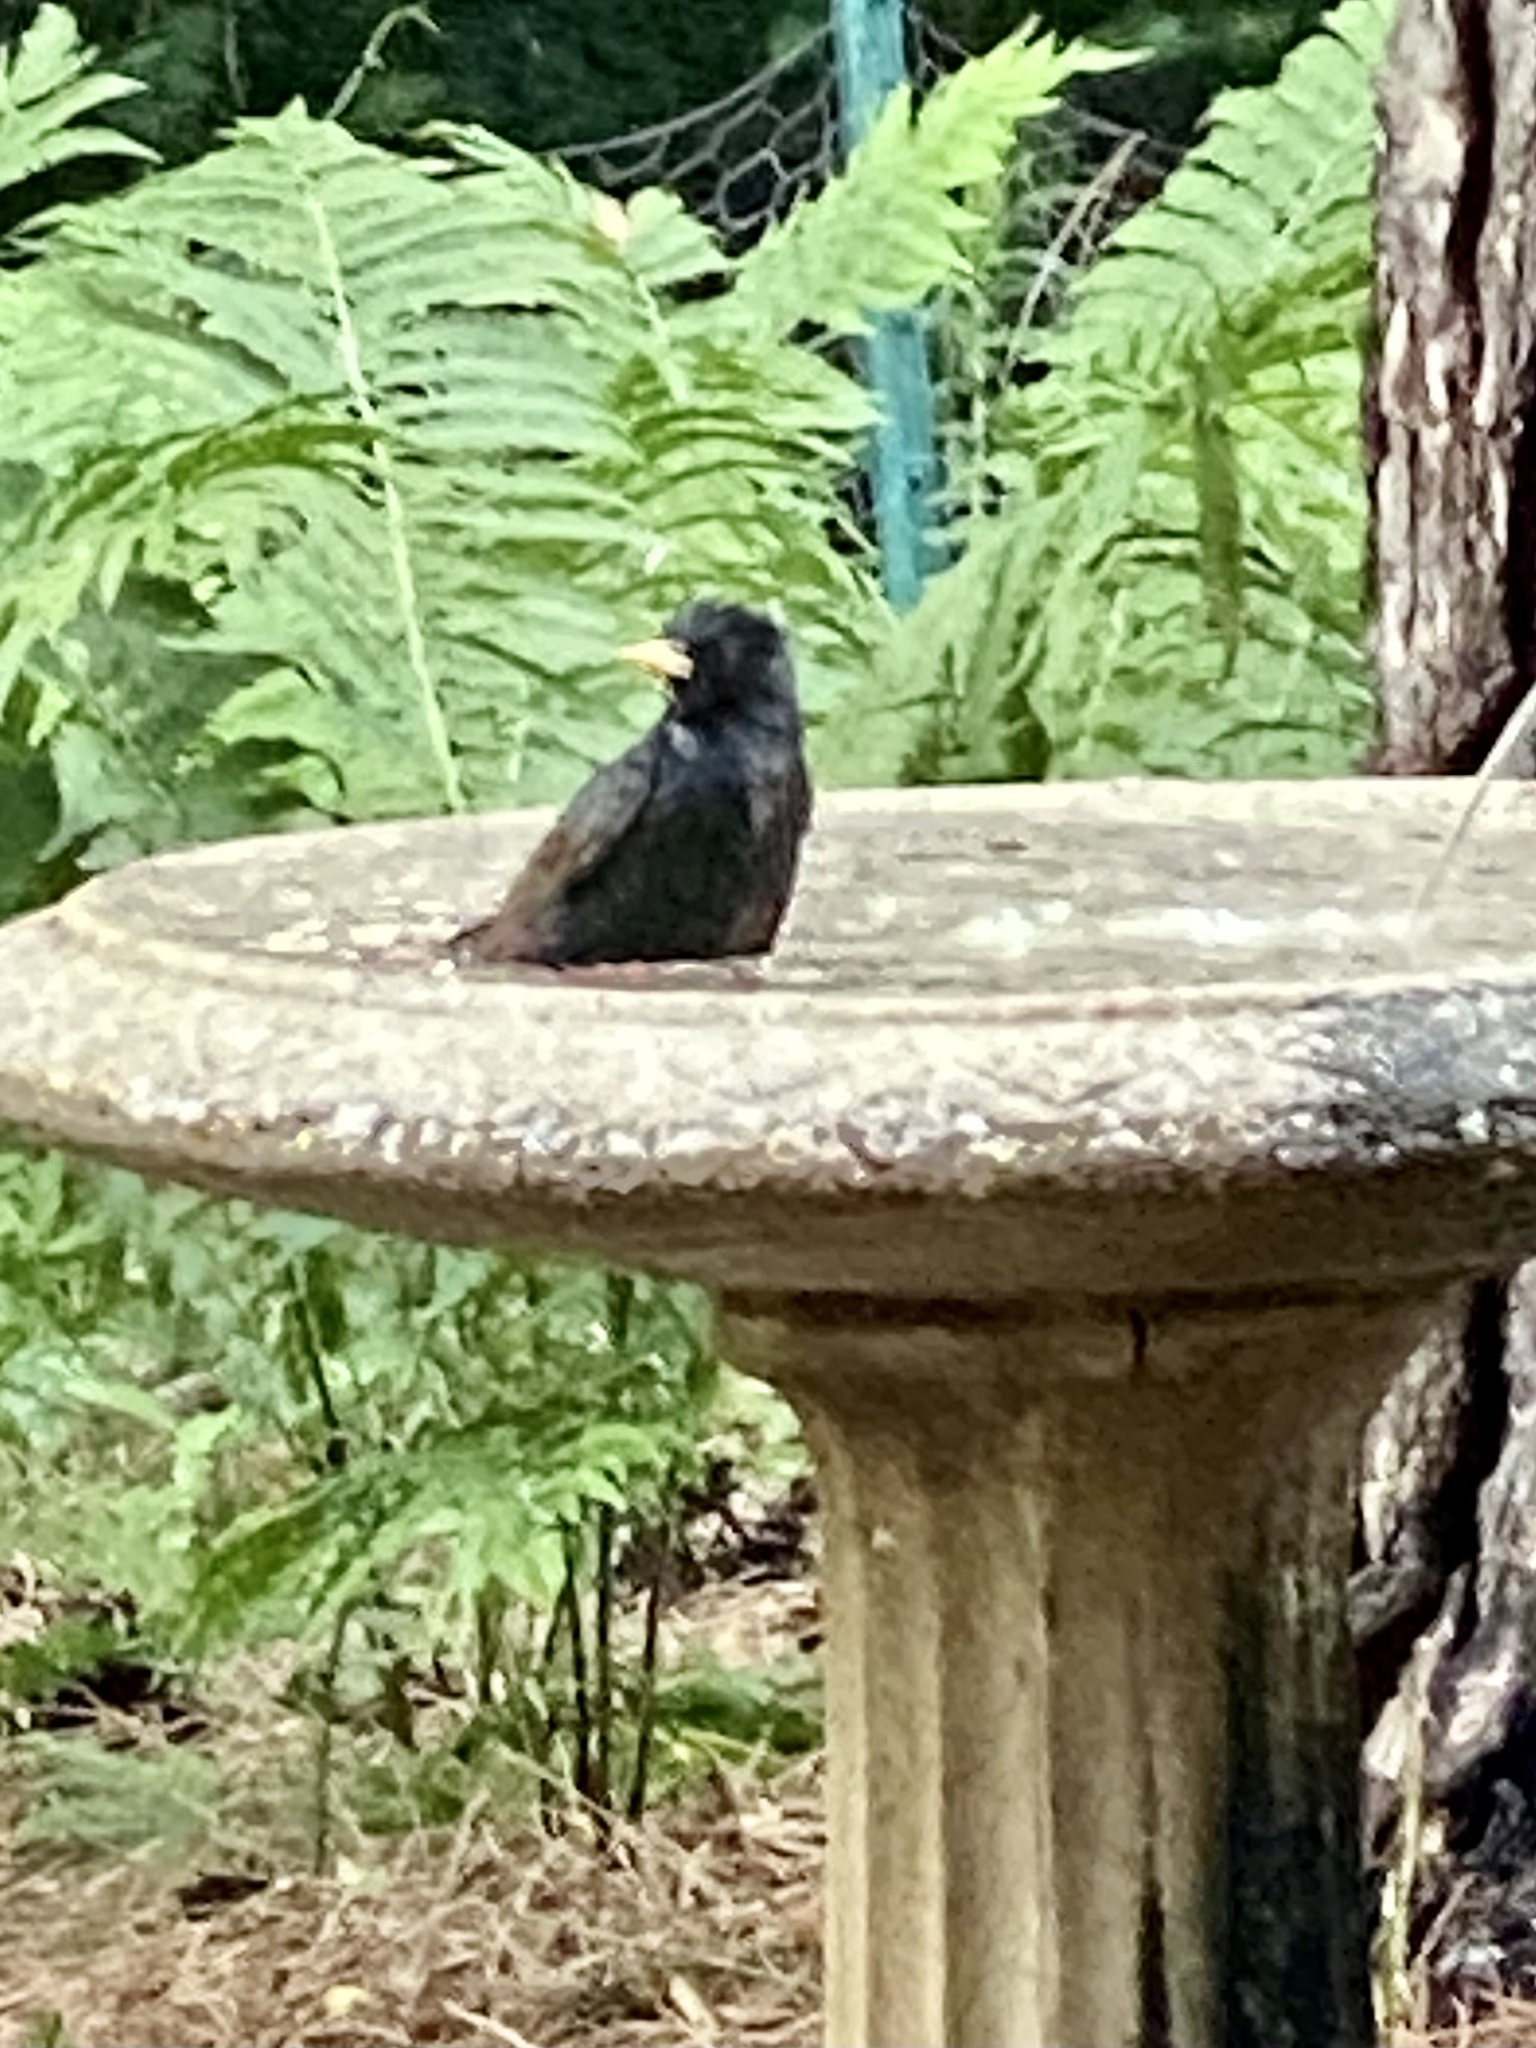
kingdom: Animalia
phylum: Chordata
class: Aves
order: Passeriformes
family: Sturnidae
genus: Sturnus
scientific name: Sturnus vulgaris
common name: Common starling
